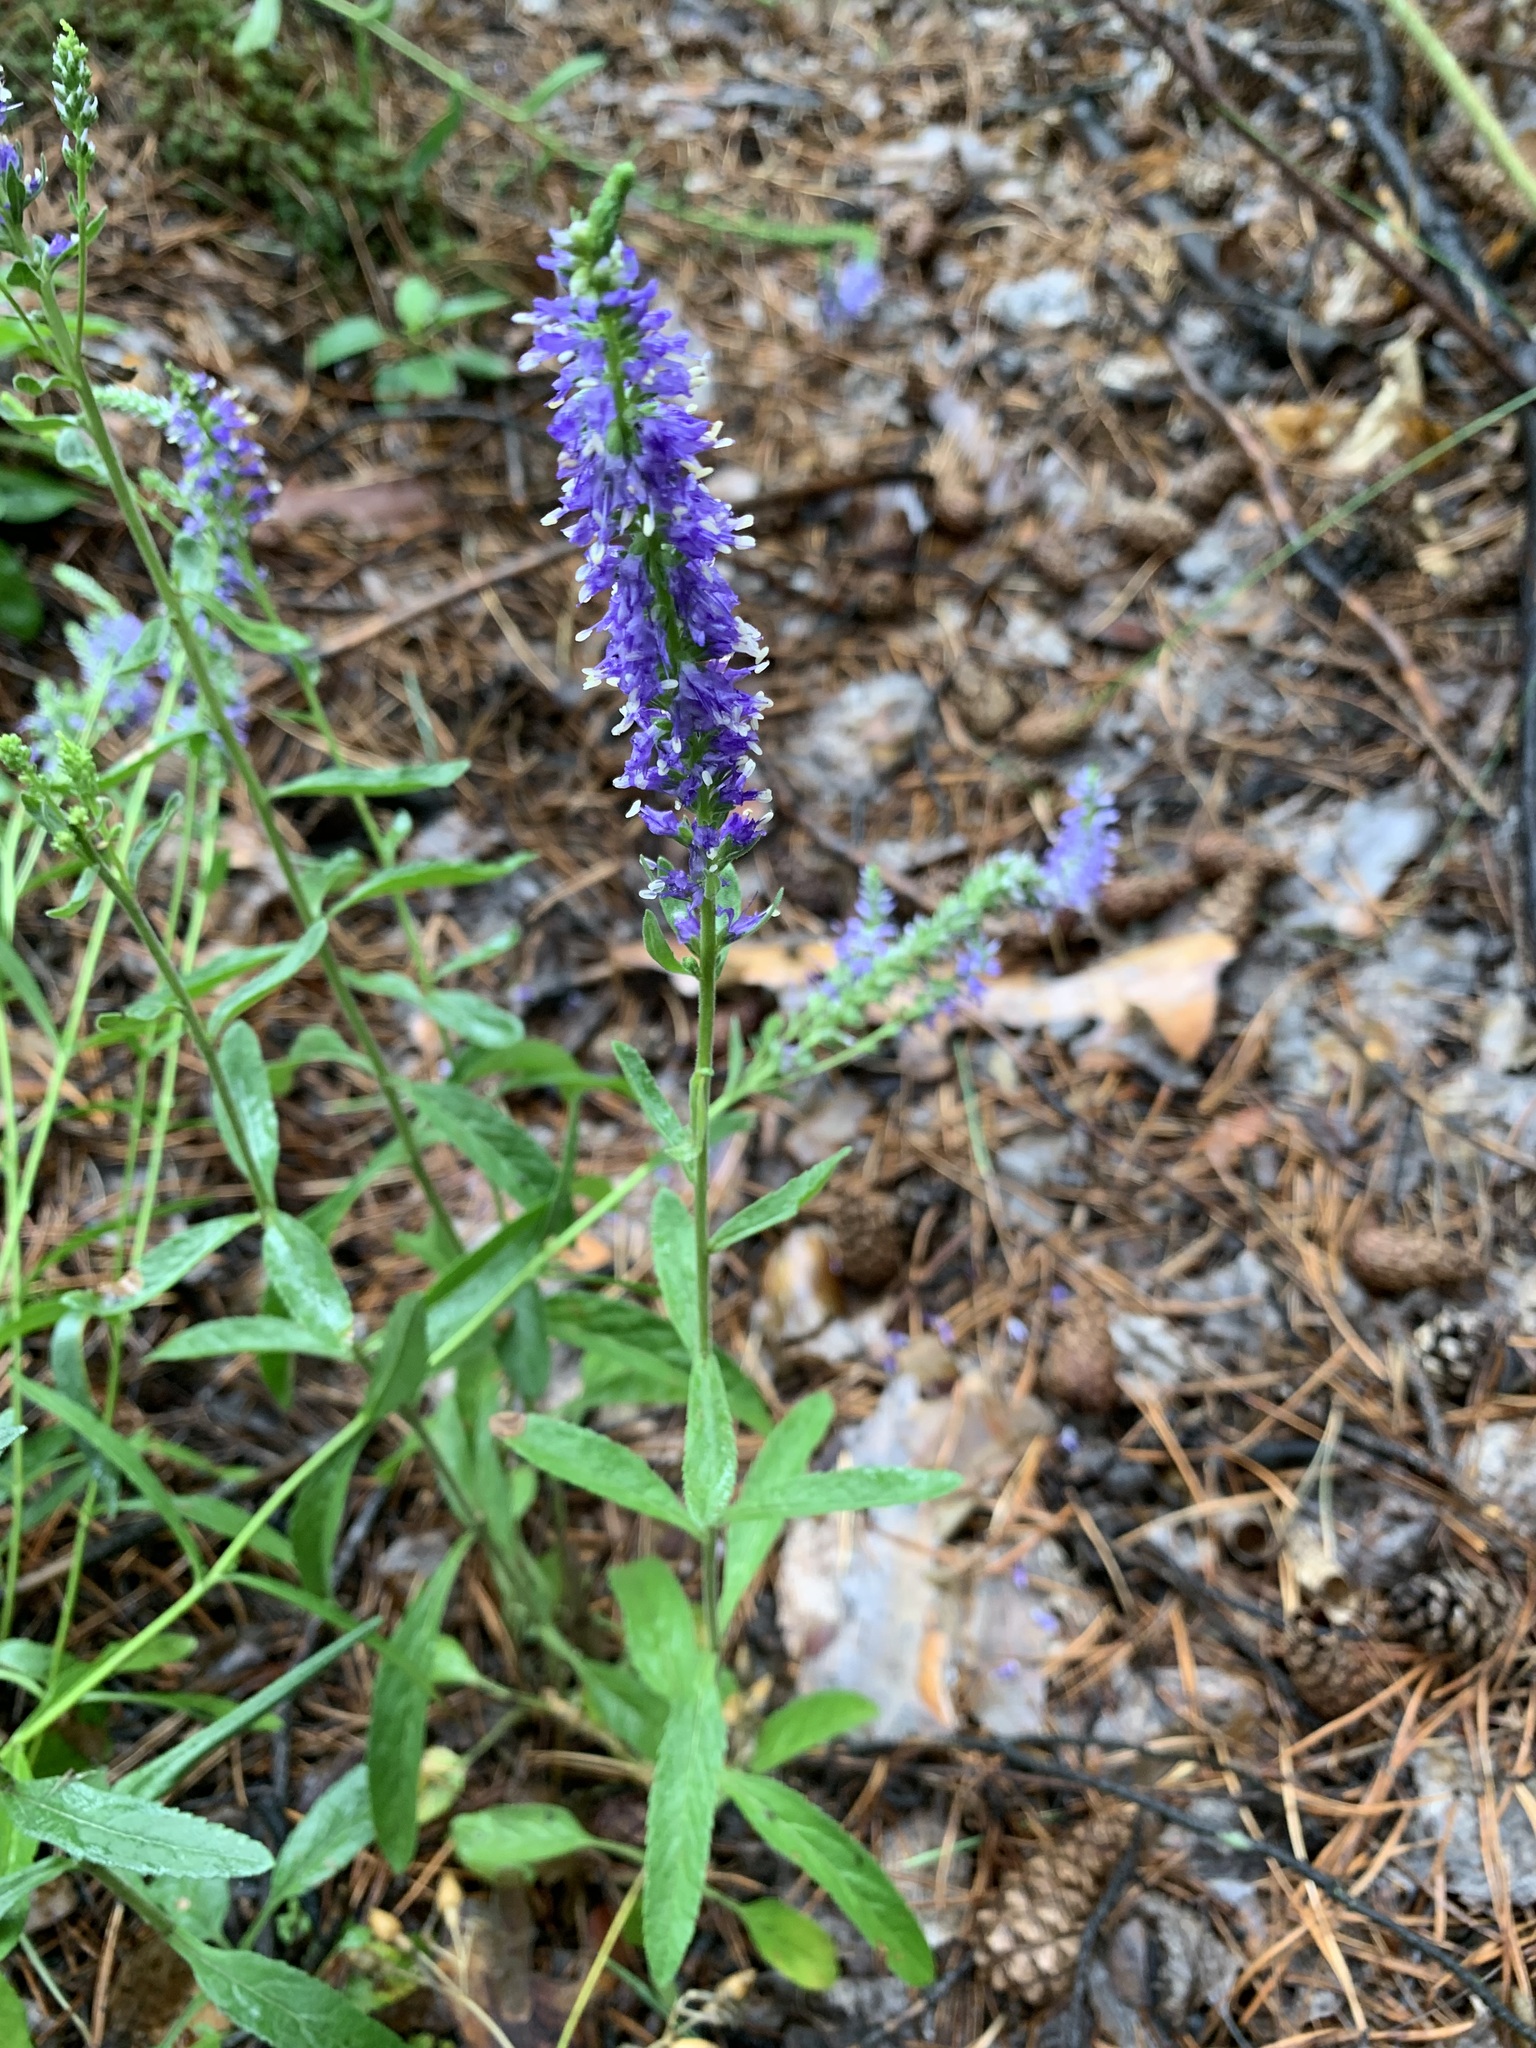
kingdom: Plantae
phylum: Tracheophyta
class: Magnoliopsida
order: Lamiales
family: Plantaginaceae
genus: Veronica
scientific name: Veronica spicata
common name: Spiked speedwell
